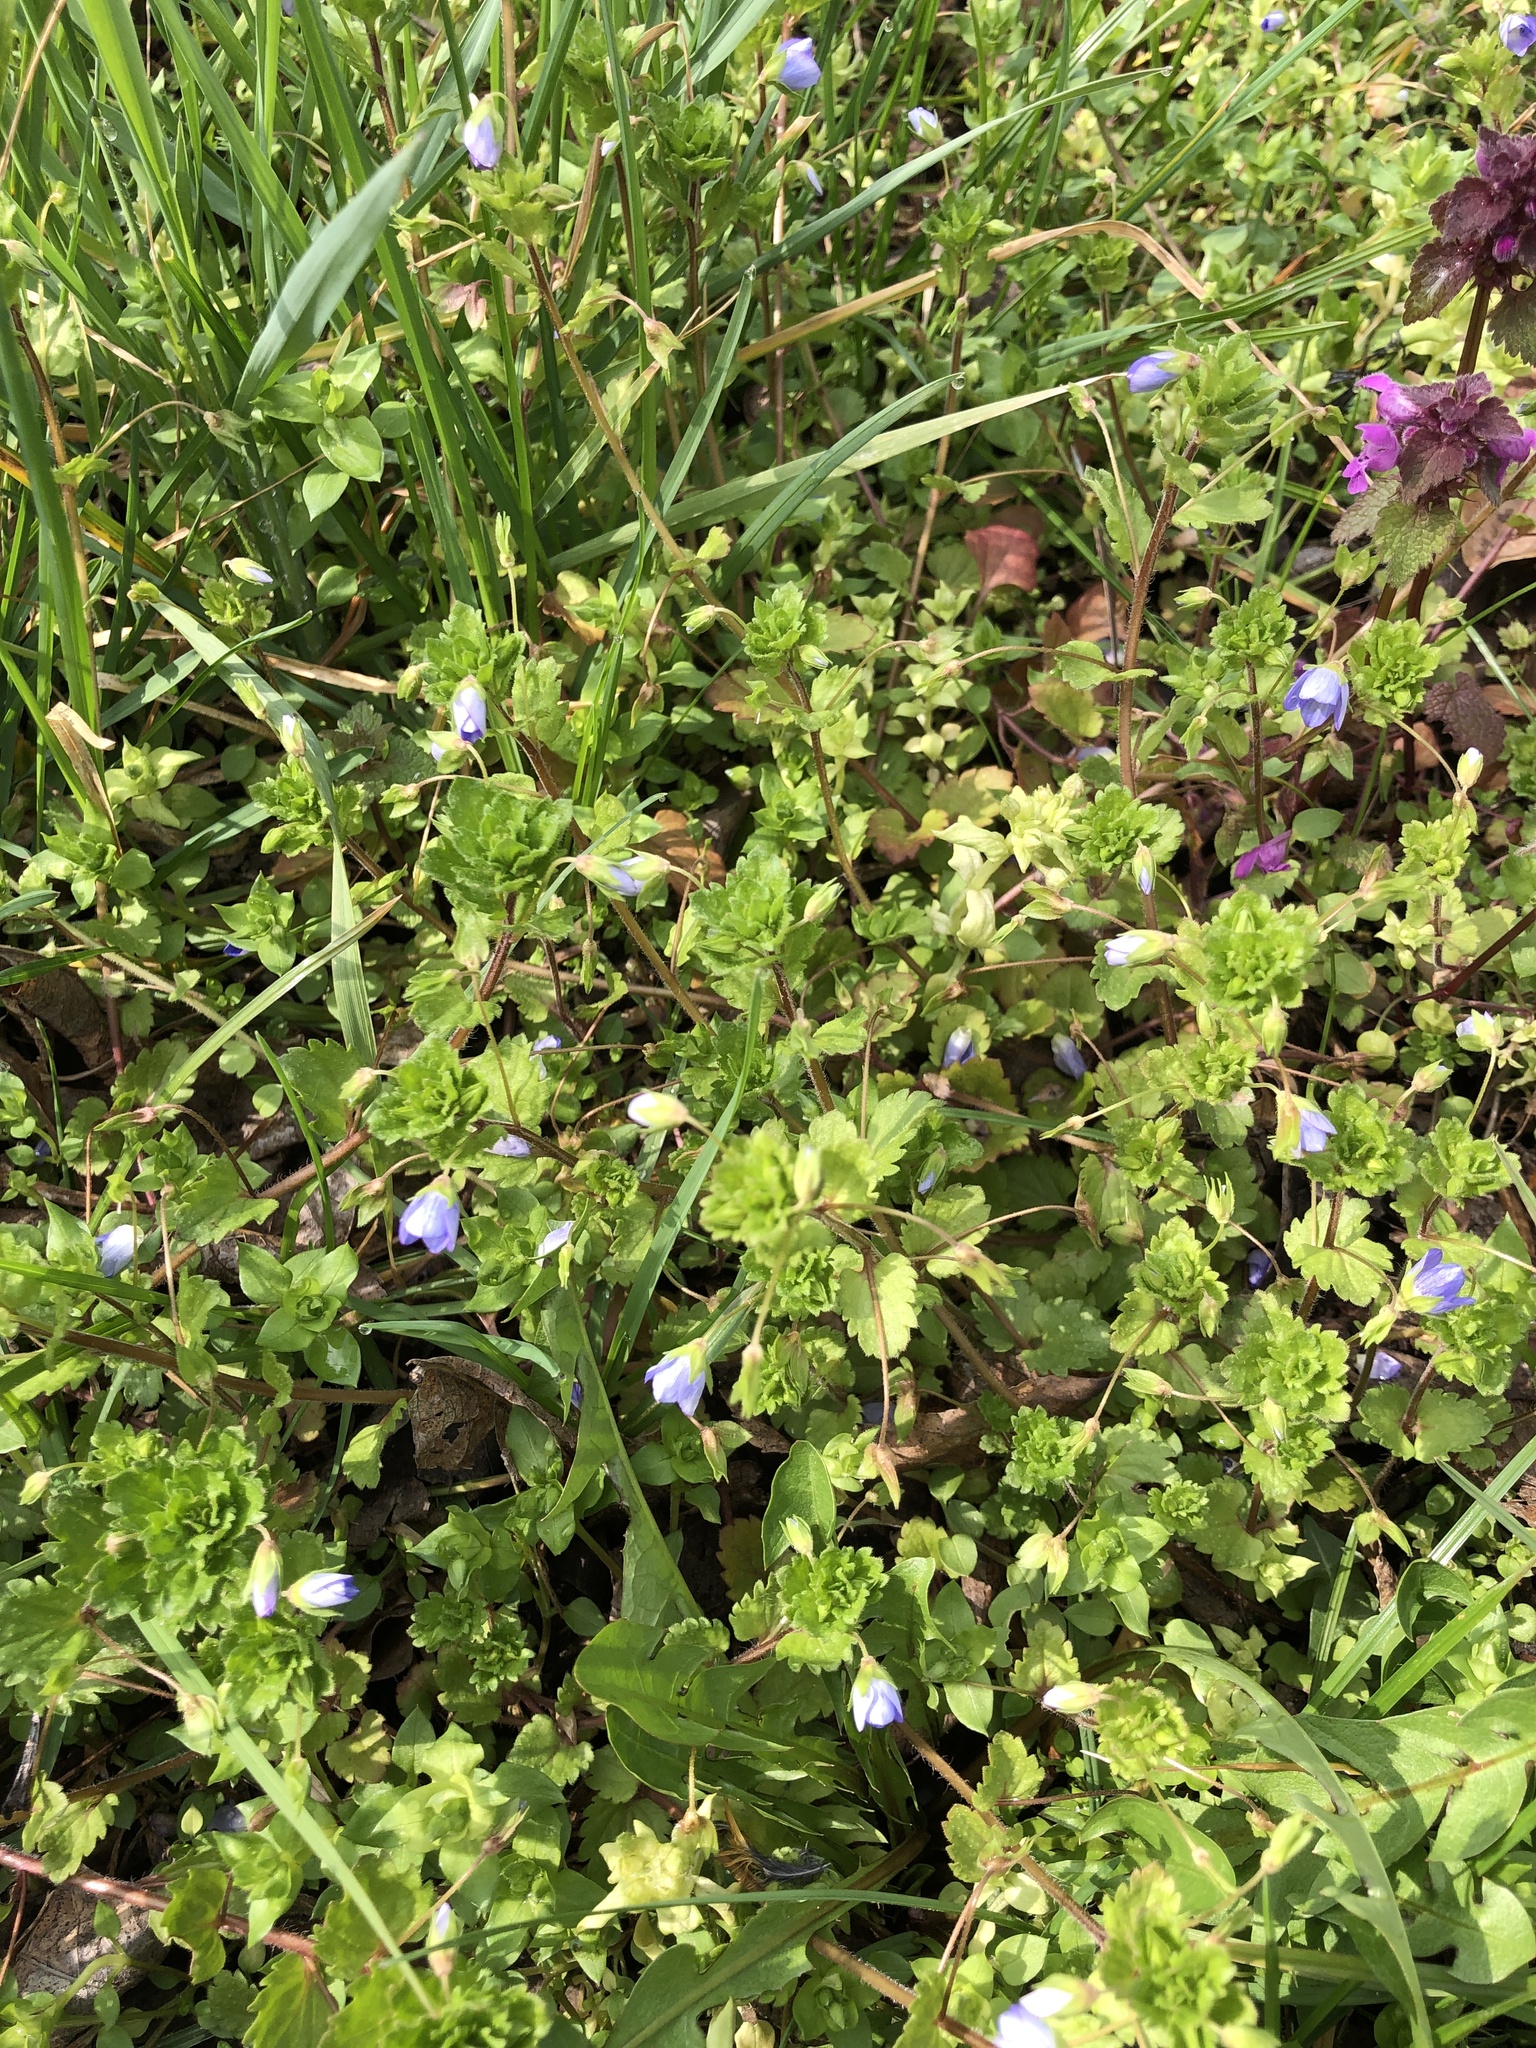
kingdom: Plantae
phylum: Tracheophyta
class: Magnoliopsida
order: Lamiales
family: Plantaginaceae
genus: Veronica
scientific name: Veronica persica
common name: Common field-speedwell
